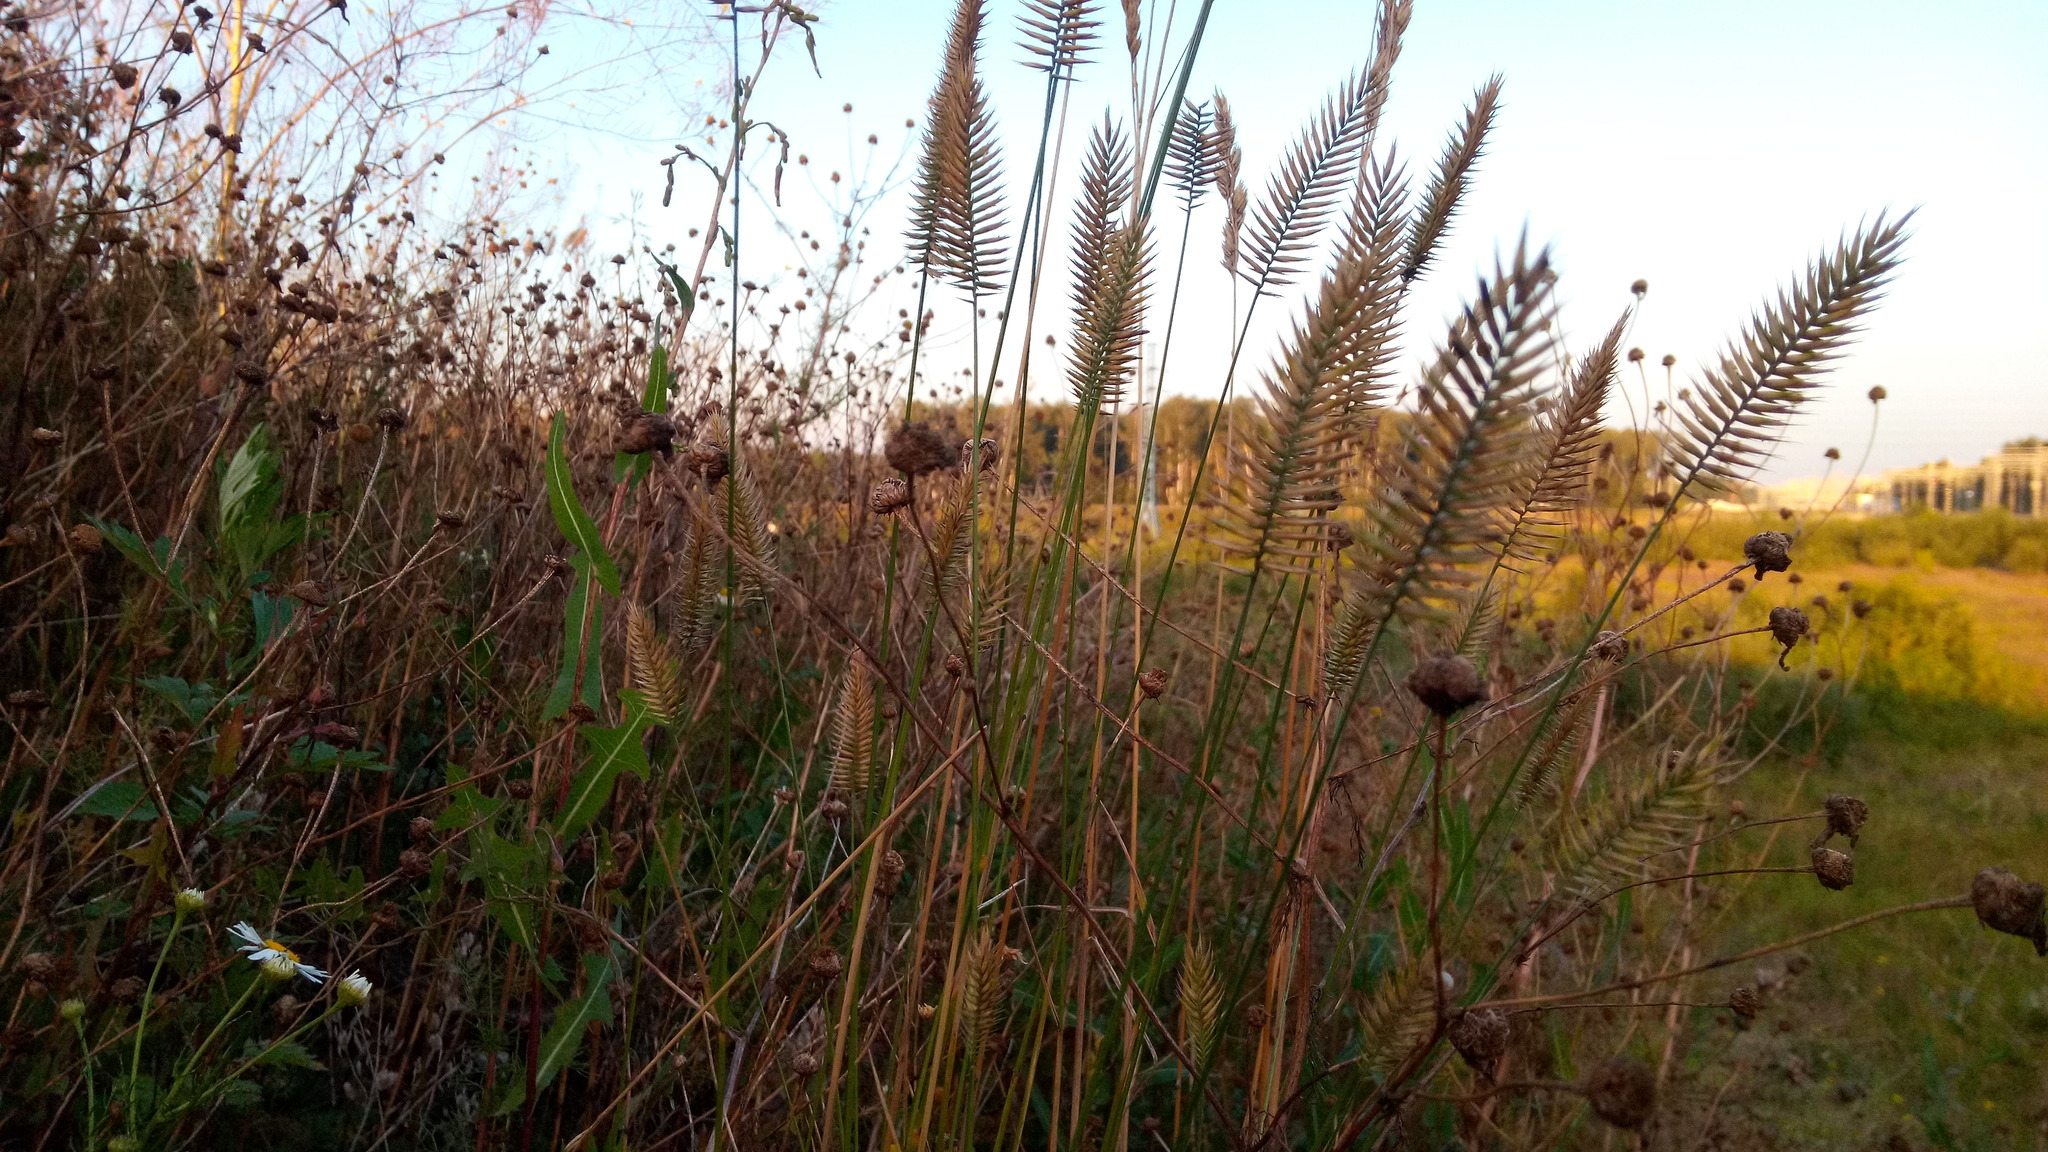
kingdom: Plantae
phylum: Tracheophyta
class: Liliopsida
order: Poales
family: Poaceae
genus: Agropyron
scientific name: Agropyron cristatum
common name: Crested wheatgrass
